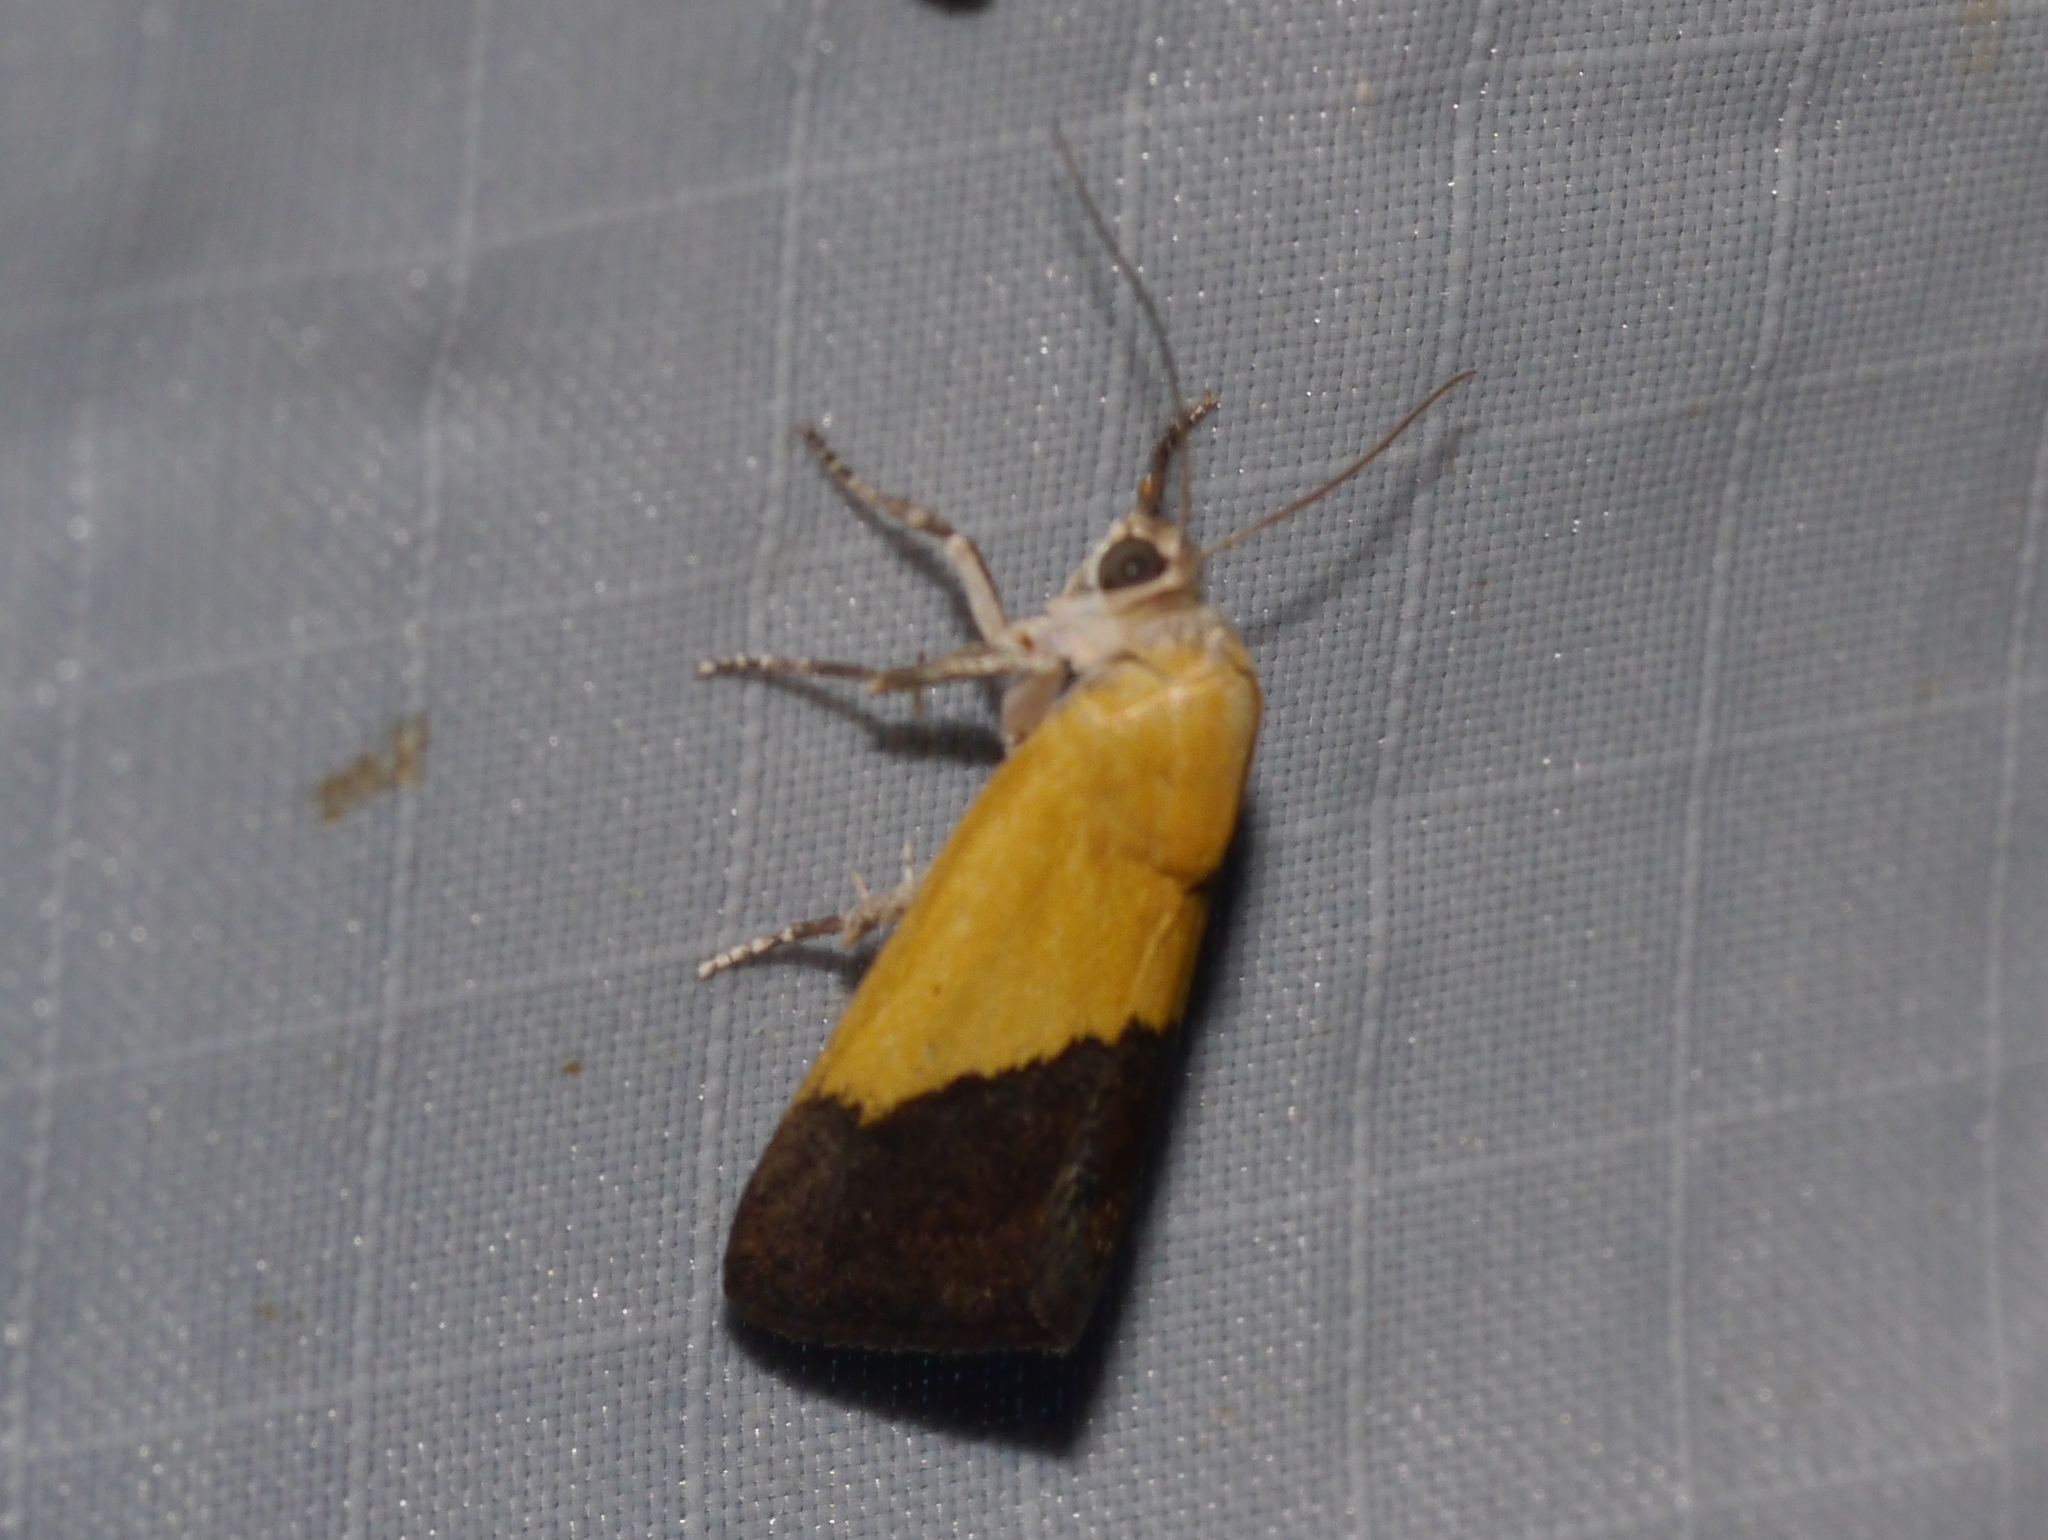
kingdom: Animalia
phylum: Arthropoda
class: Insecta
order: Lepidoptera
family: Noctuidae
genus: Acontia
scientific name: Acontia semiflava
